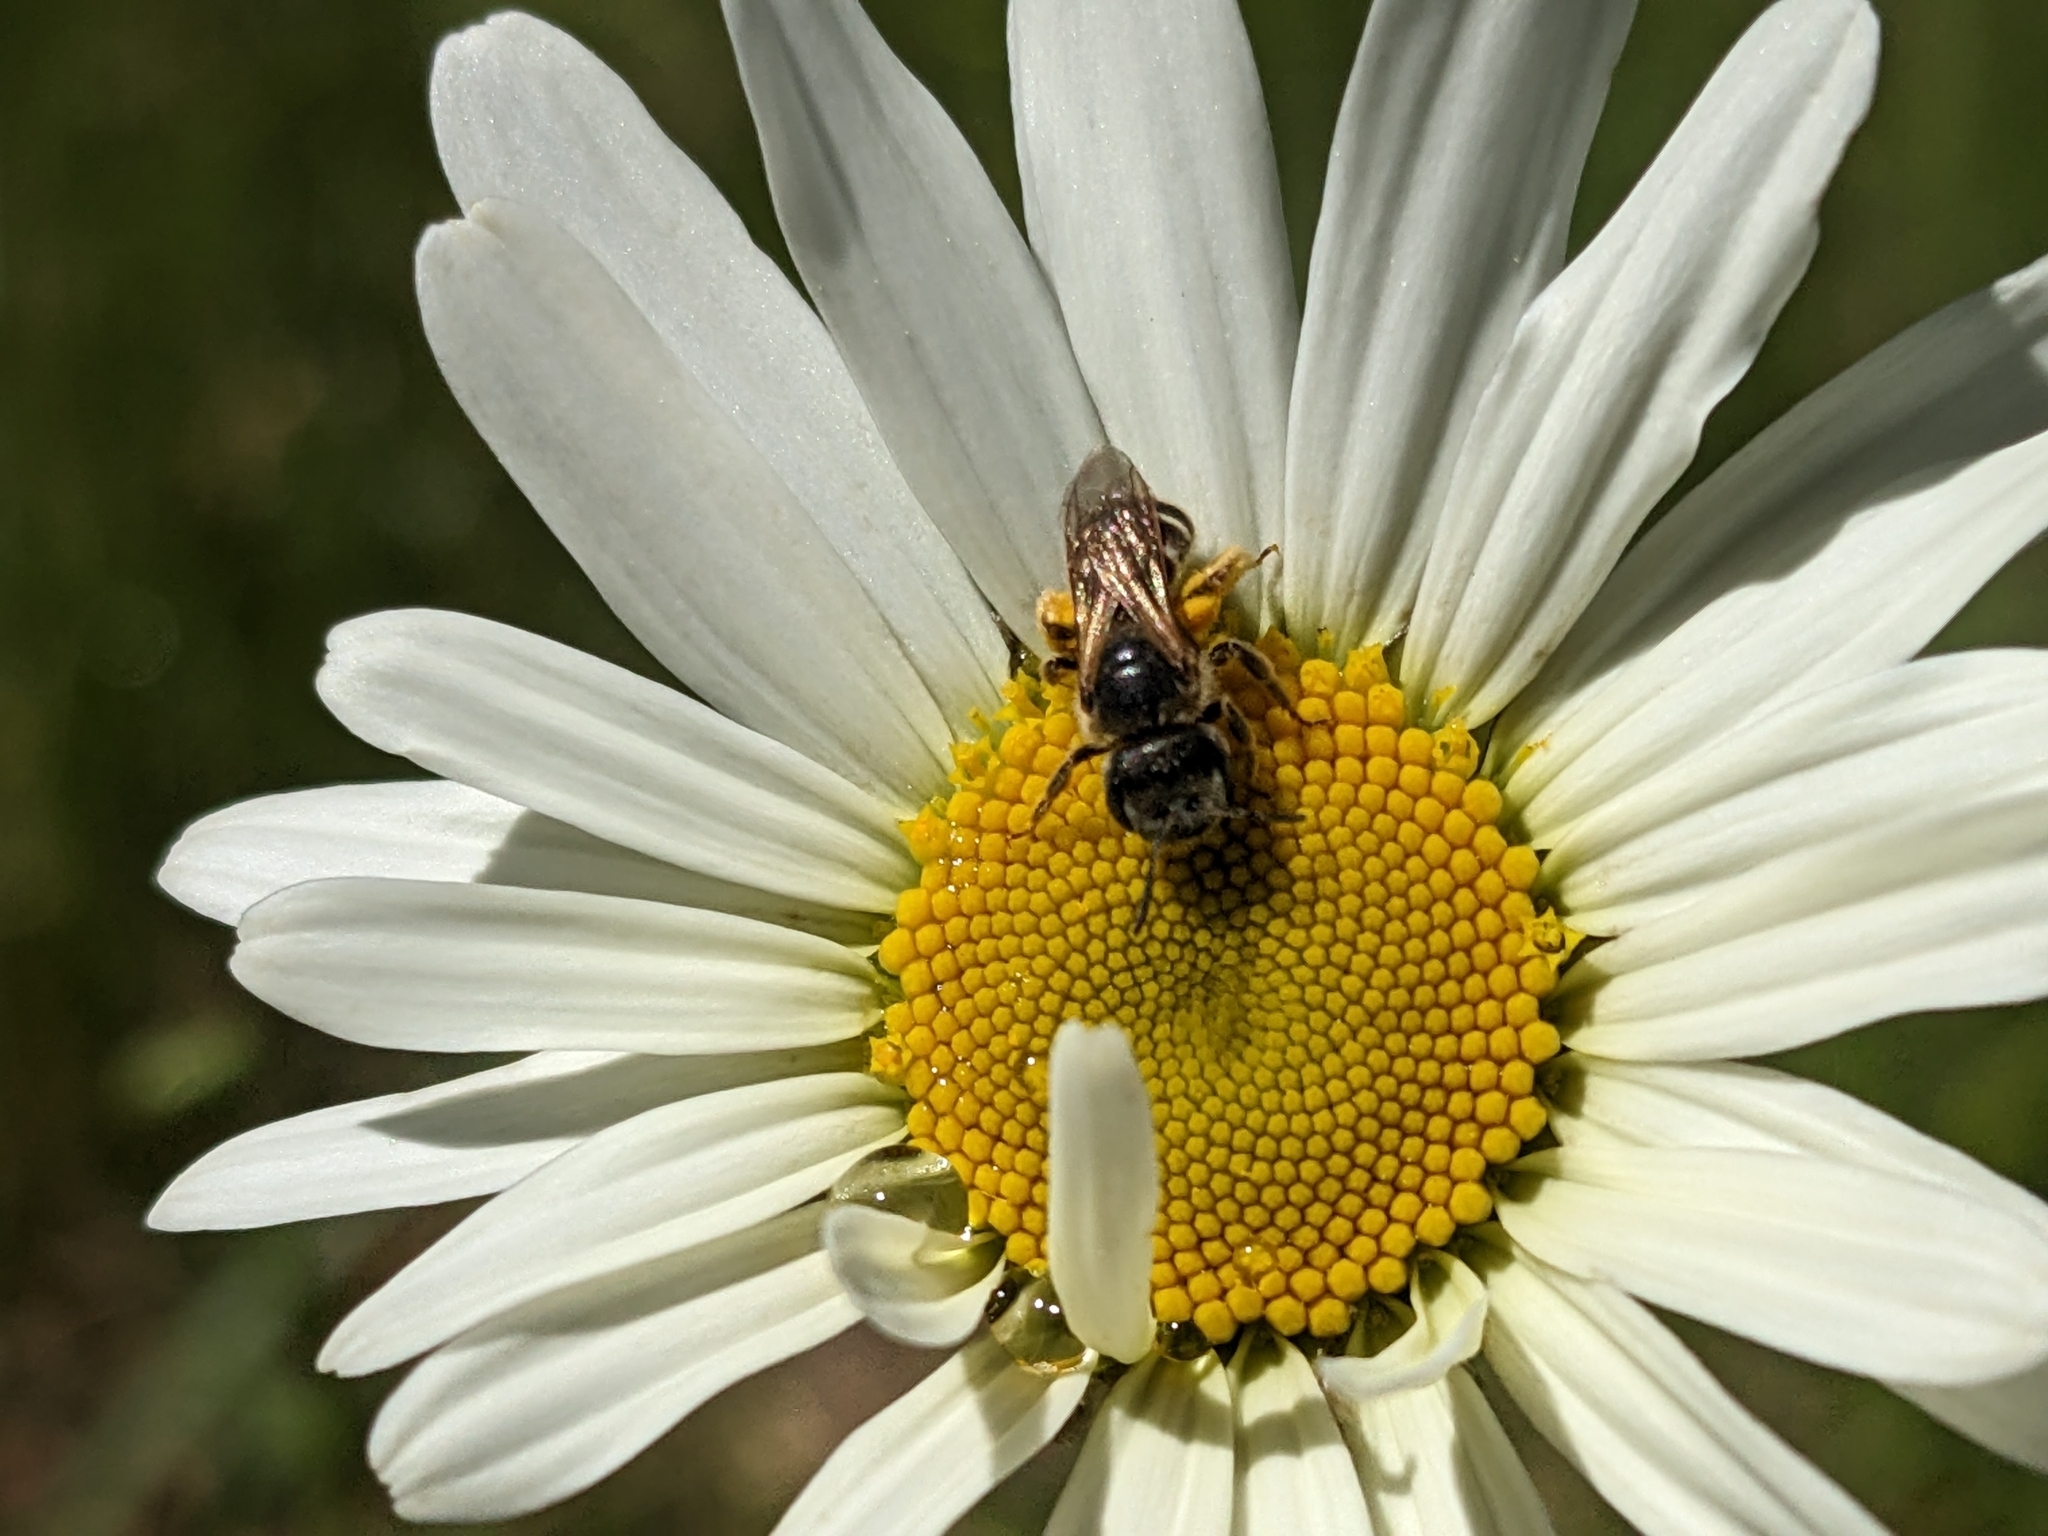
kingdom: Animalia
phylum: Arthropoda
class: Insecta
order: Hymenoptera
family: Halictidae
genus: Halictus
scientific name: Halictus ligatus
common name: Ligated furrow bee
